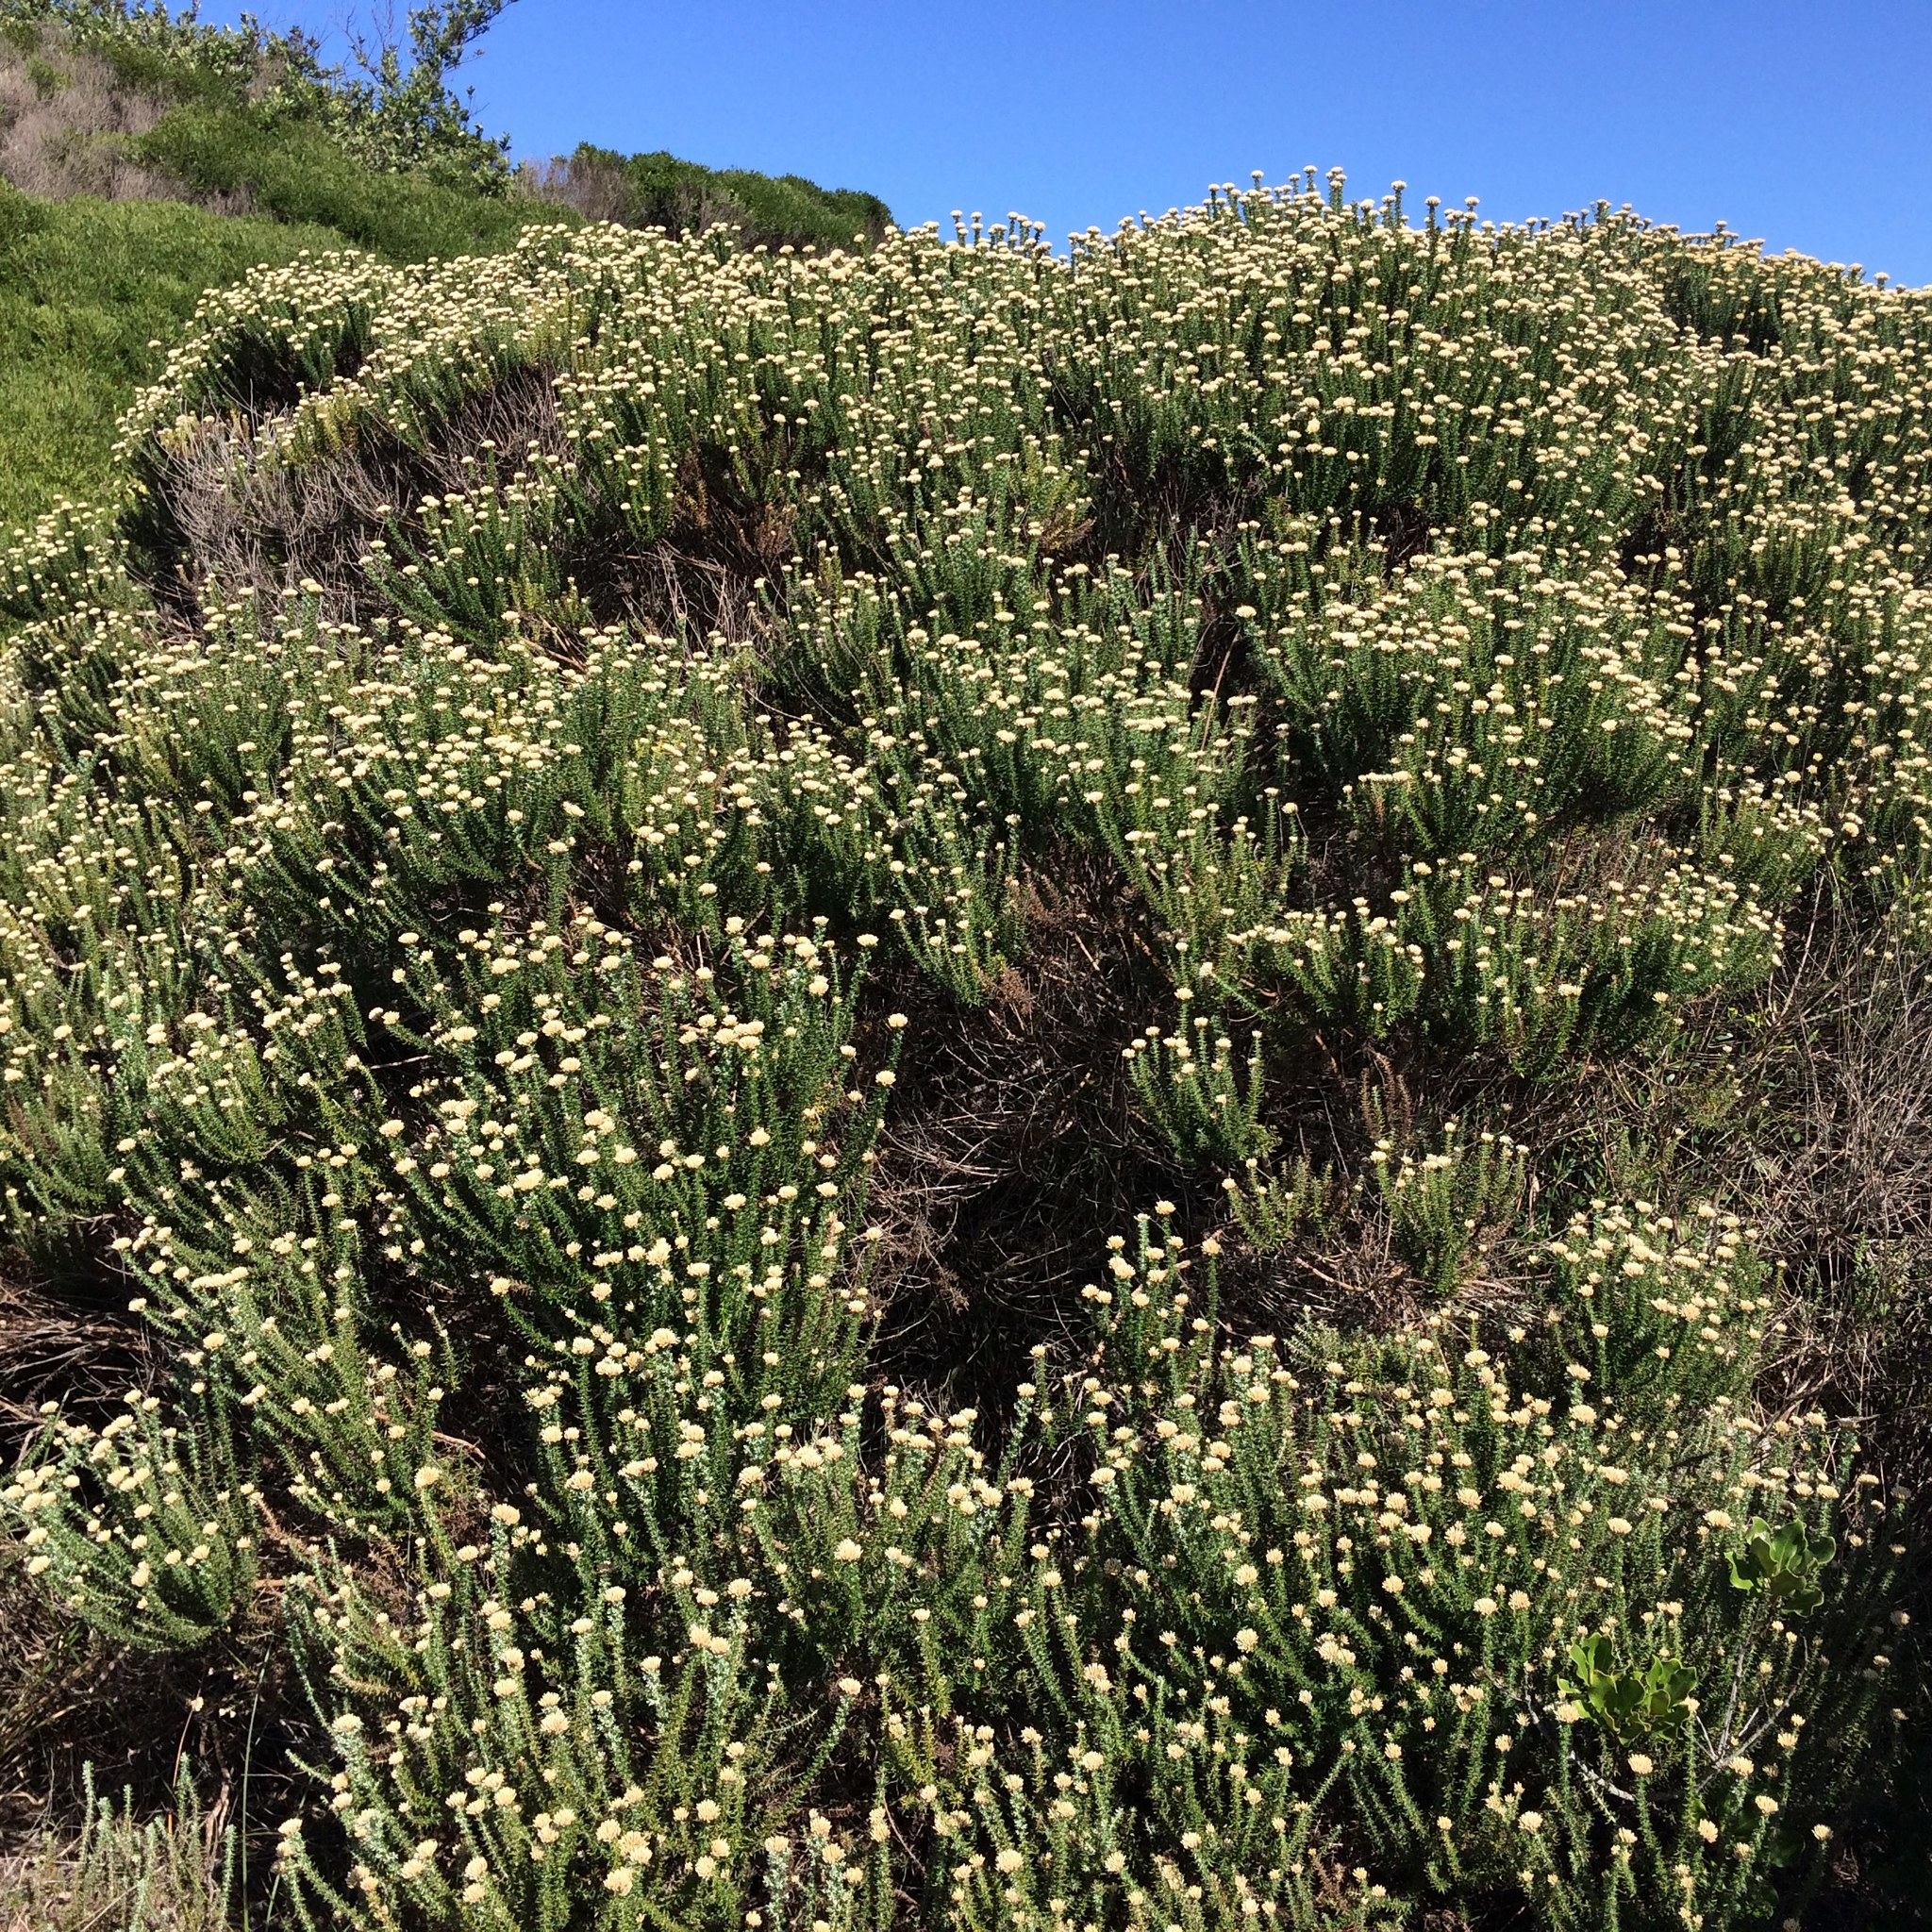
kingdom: Plantae
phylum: Tracheophyta
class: Magnoliopsida
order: Asterales
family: Asteraceae
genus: Metalasia
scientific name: Metalasia muricata
